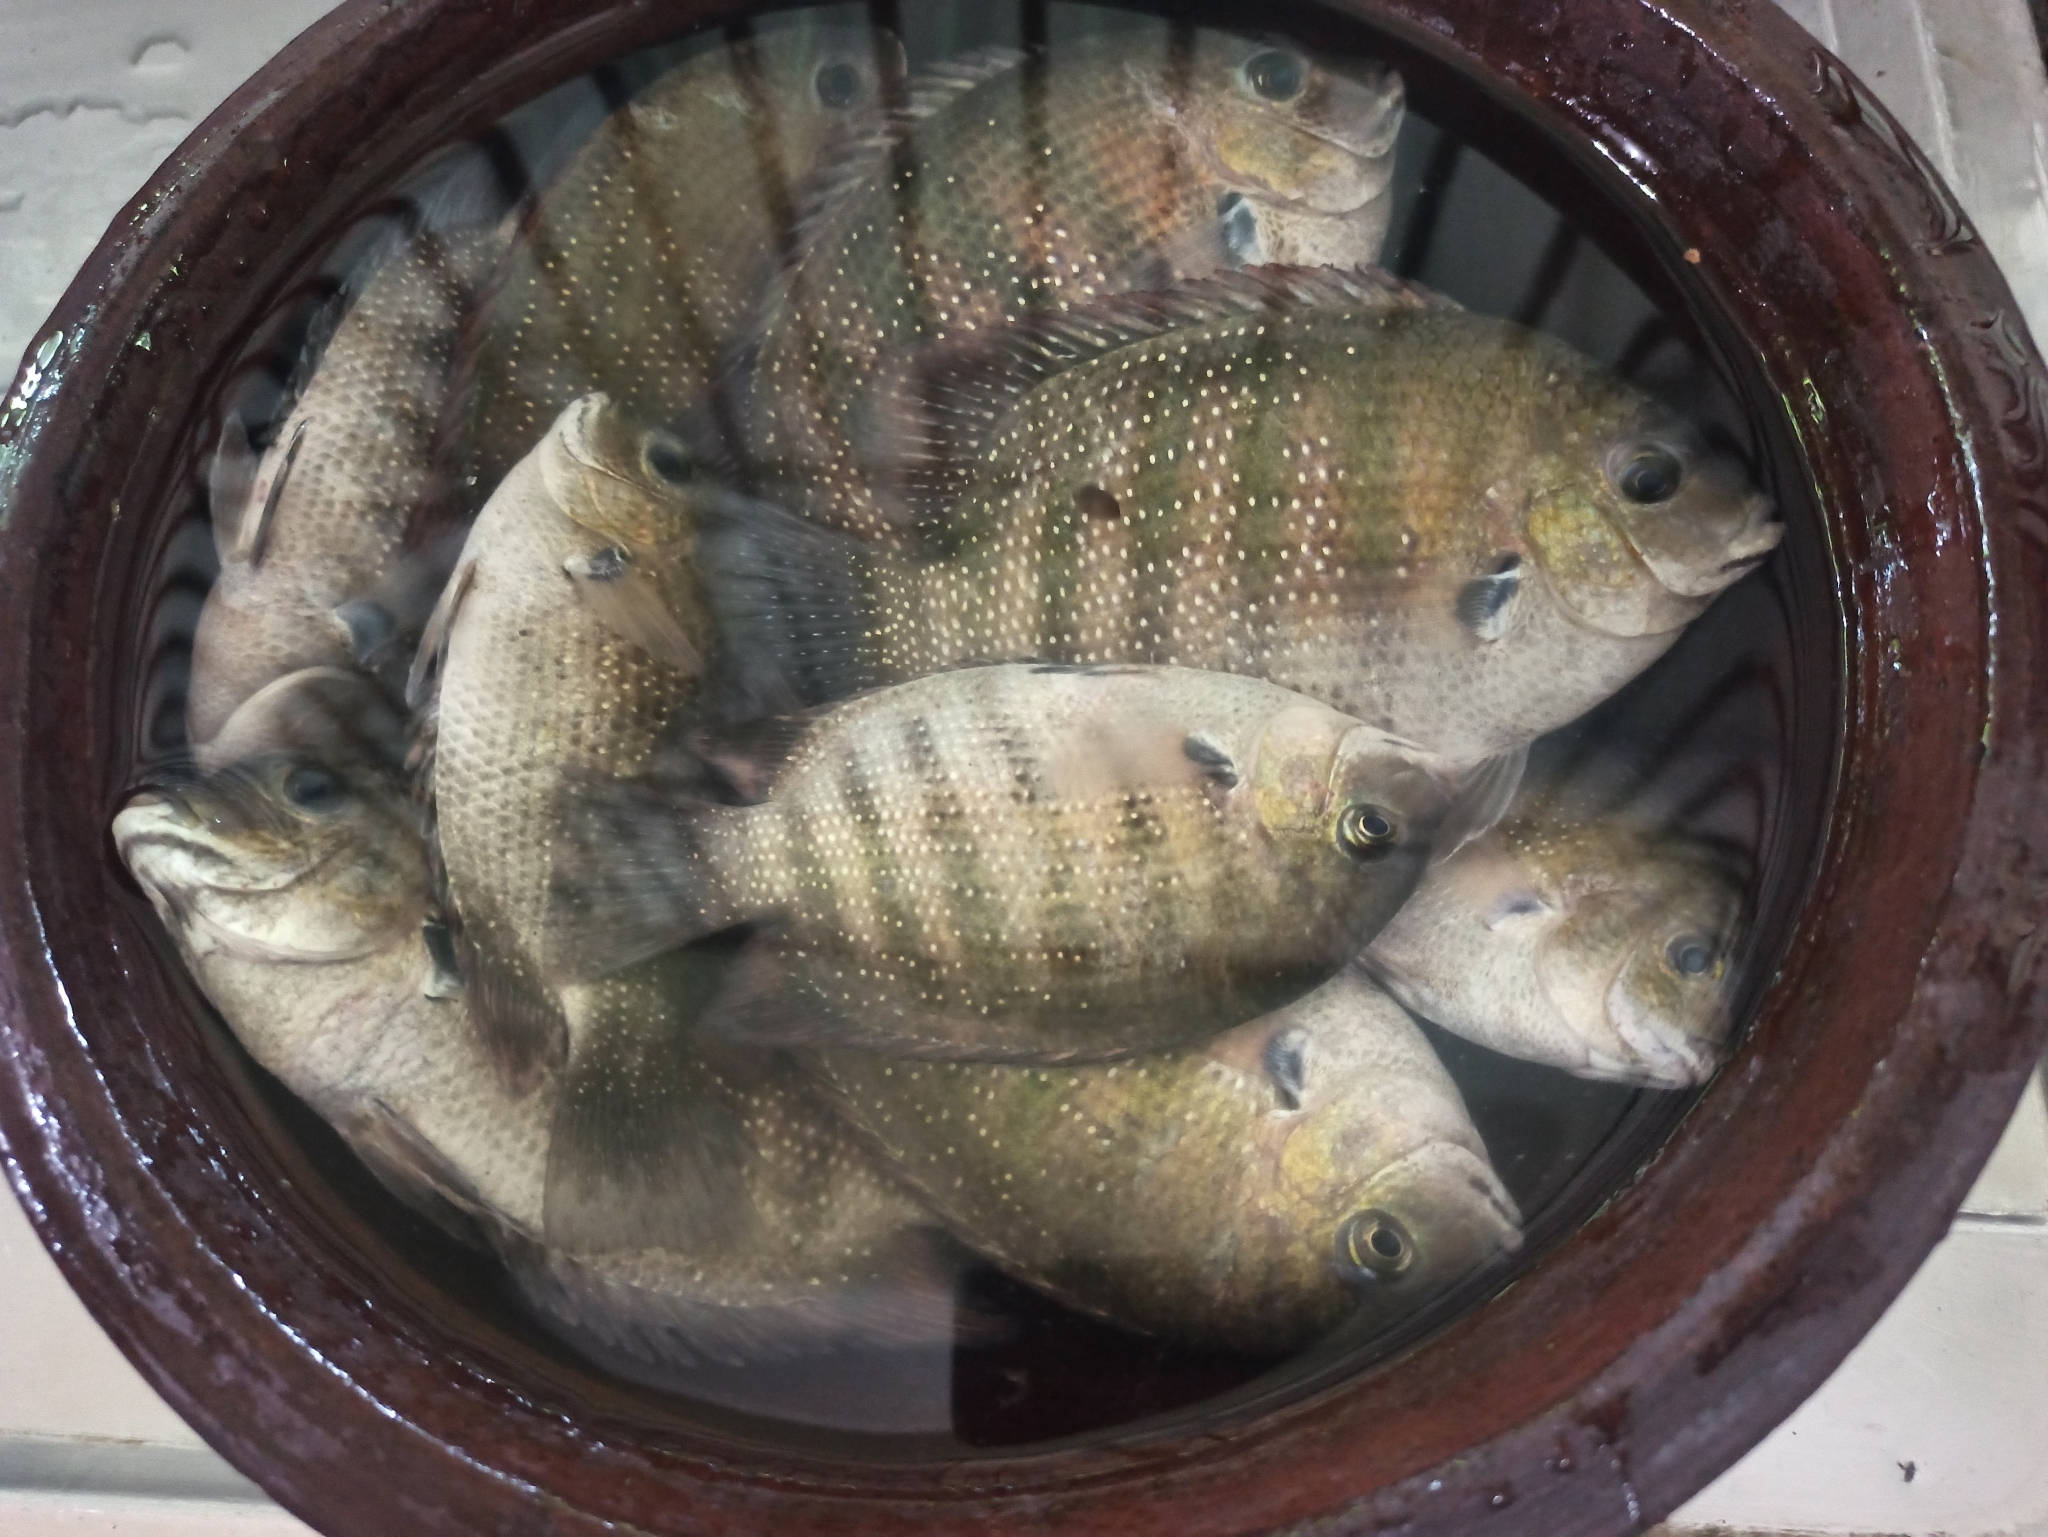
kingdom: Animalia
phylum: Chordata
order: Perciformes
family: Cichlidae
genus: Etroplus
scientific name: Etroplus suratensis
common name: Green chromide
